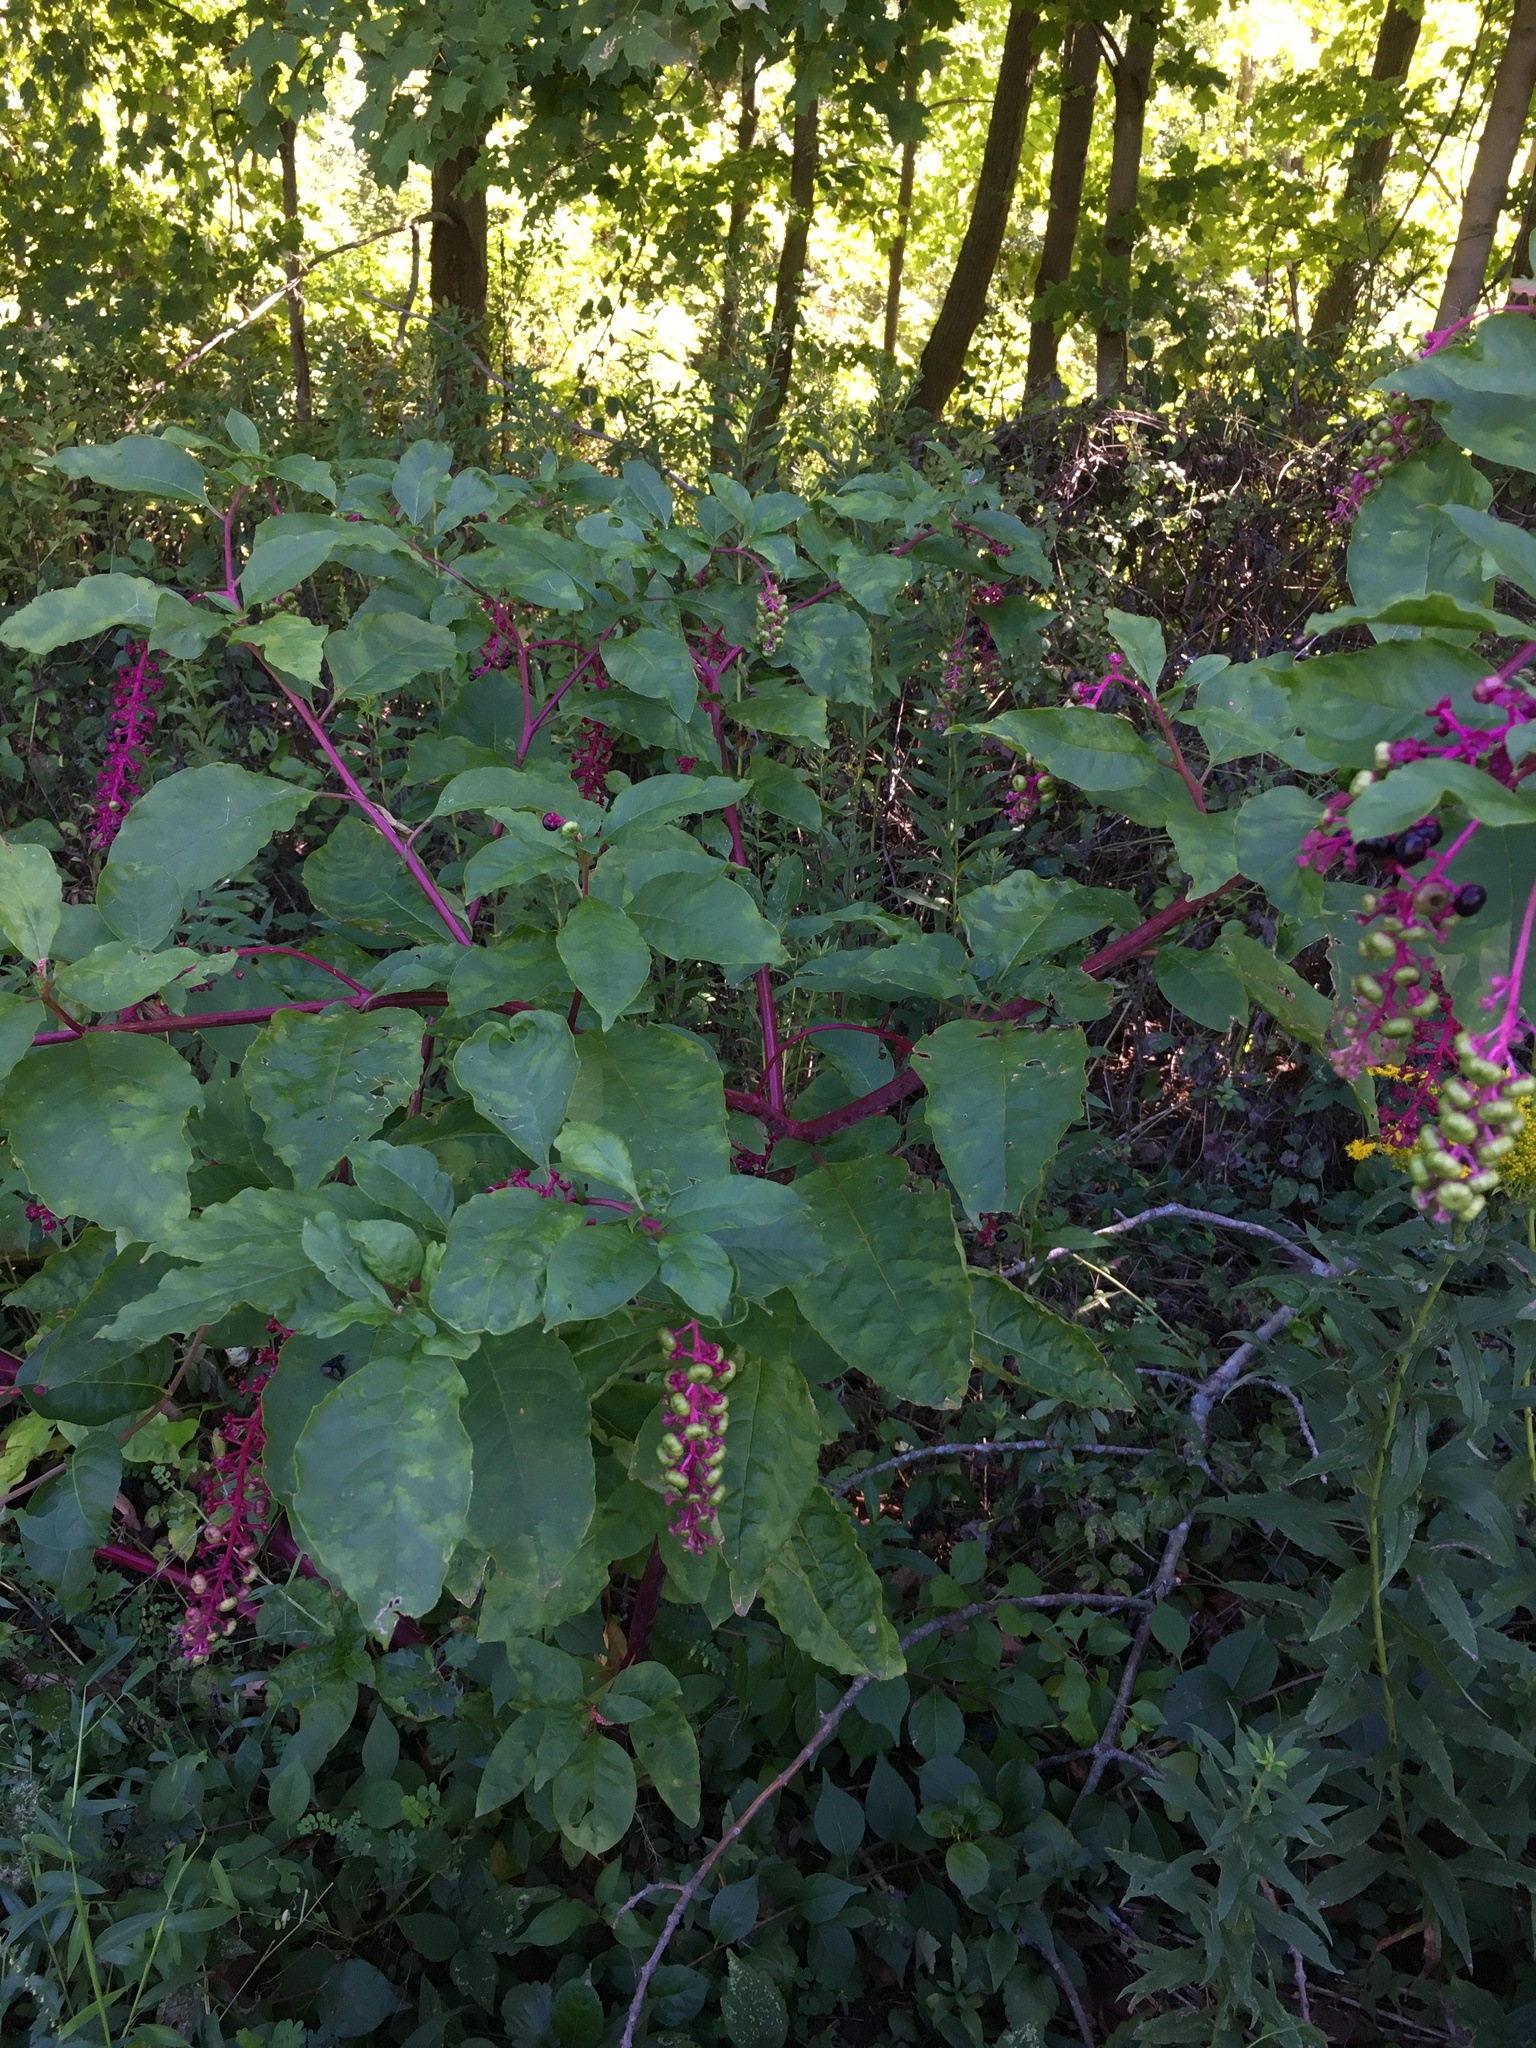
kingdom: Plantae
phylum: Tracheophyta
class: Magnoliopsida
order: Caryophyllales
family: Phytolaccaceae
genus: Phytolacca
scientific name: Phytolacca americana
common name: American pokeweed
